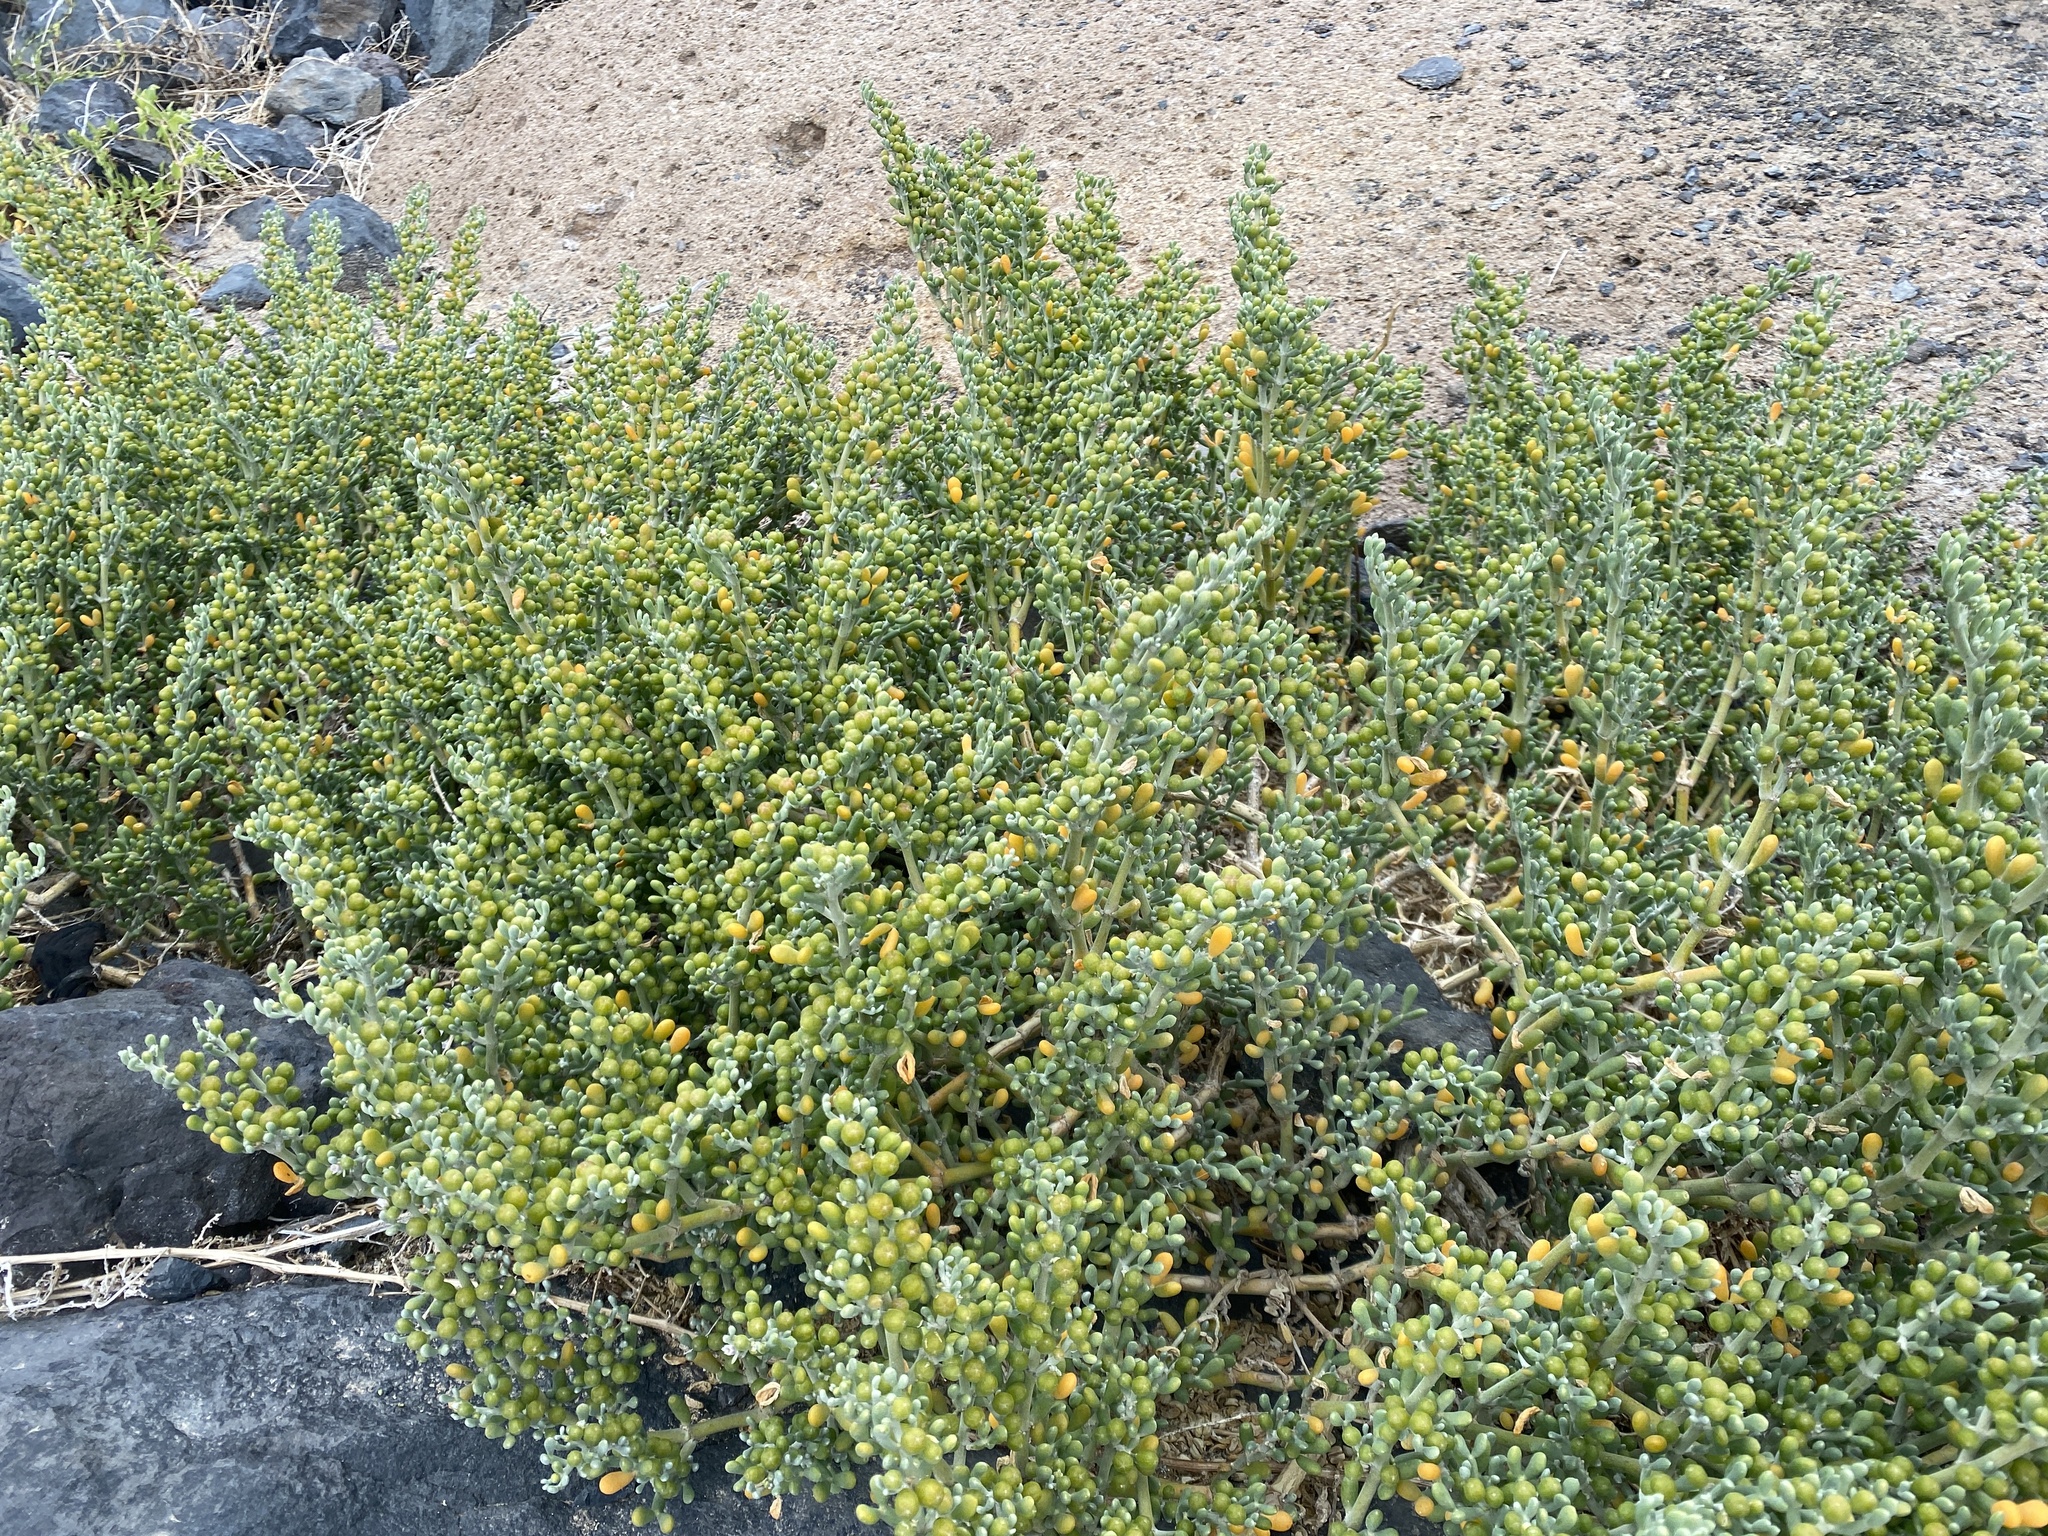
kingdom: Plantae
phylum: Tracheophyta
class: Magnoliopsida
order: Zygophyllales
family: Zygophyllaceae
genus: Tetraena
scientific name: Tetraena fontanesii
